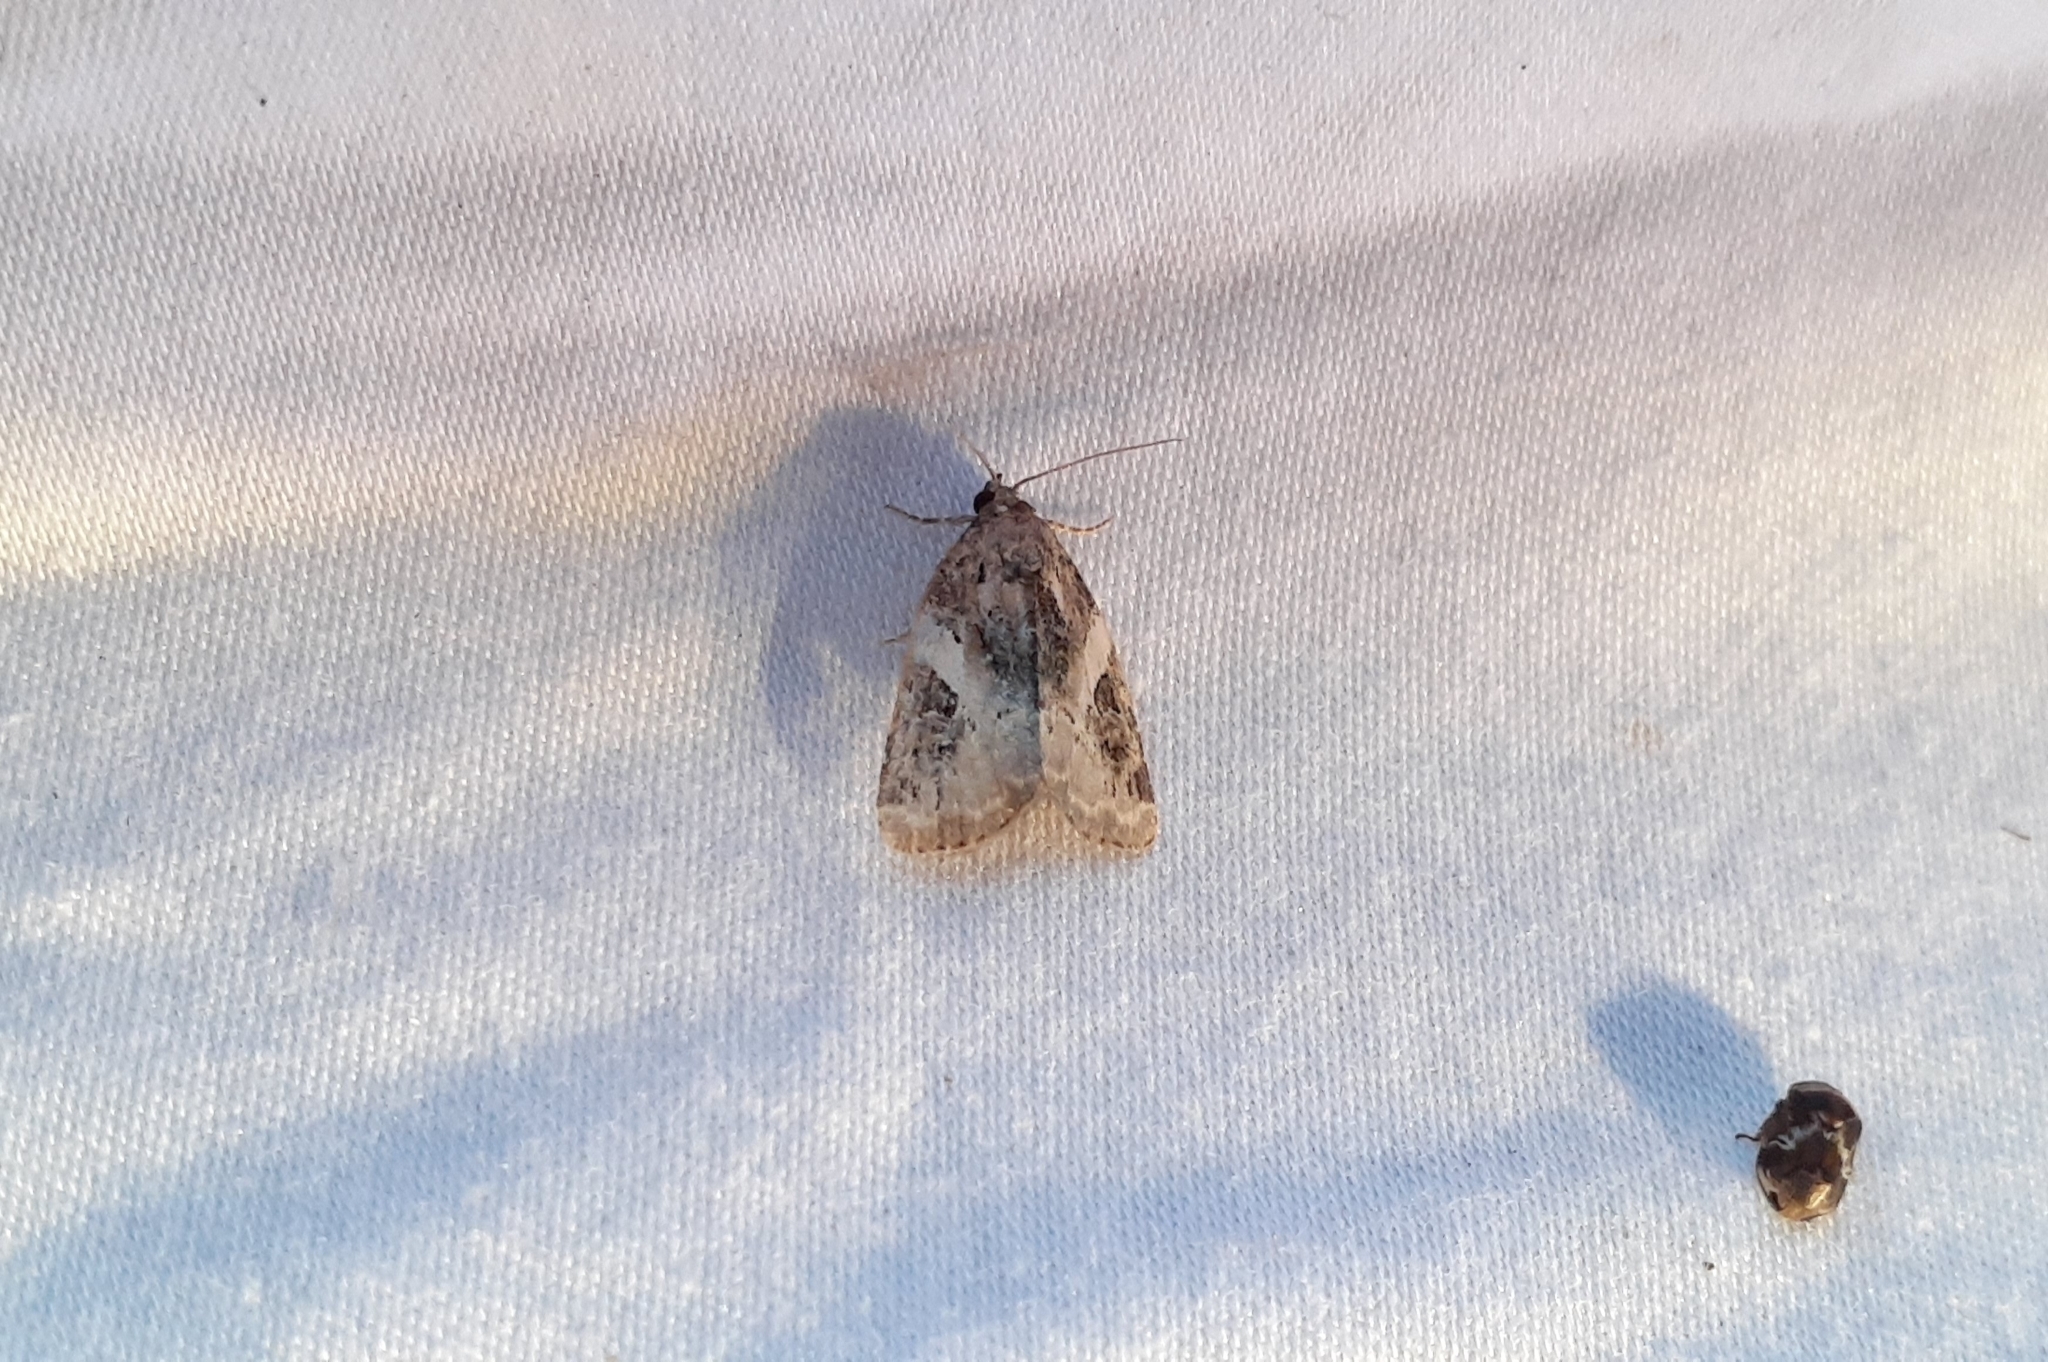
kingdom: Animalia
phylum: Arthropoda
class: Insecta
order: Lepidoptera
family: Noctuidae
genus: Pseudeustrotia
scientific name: Pseudeustrotia carneola
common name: Pink-barred lithacodia moth
